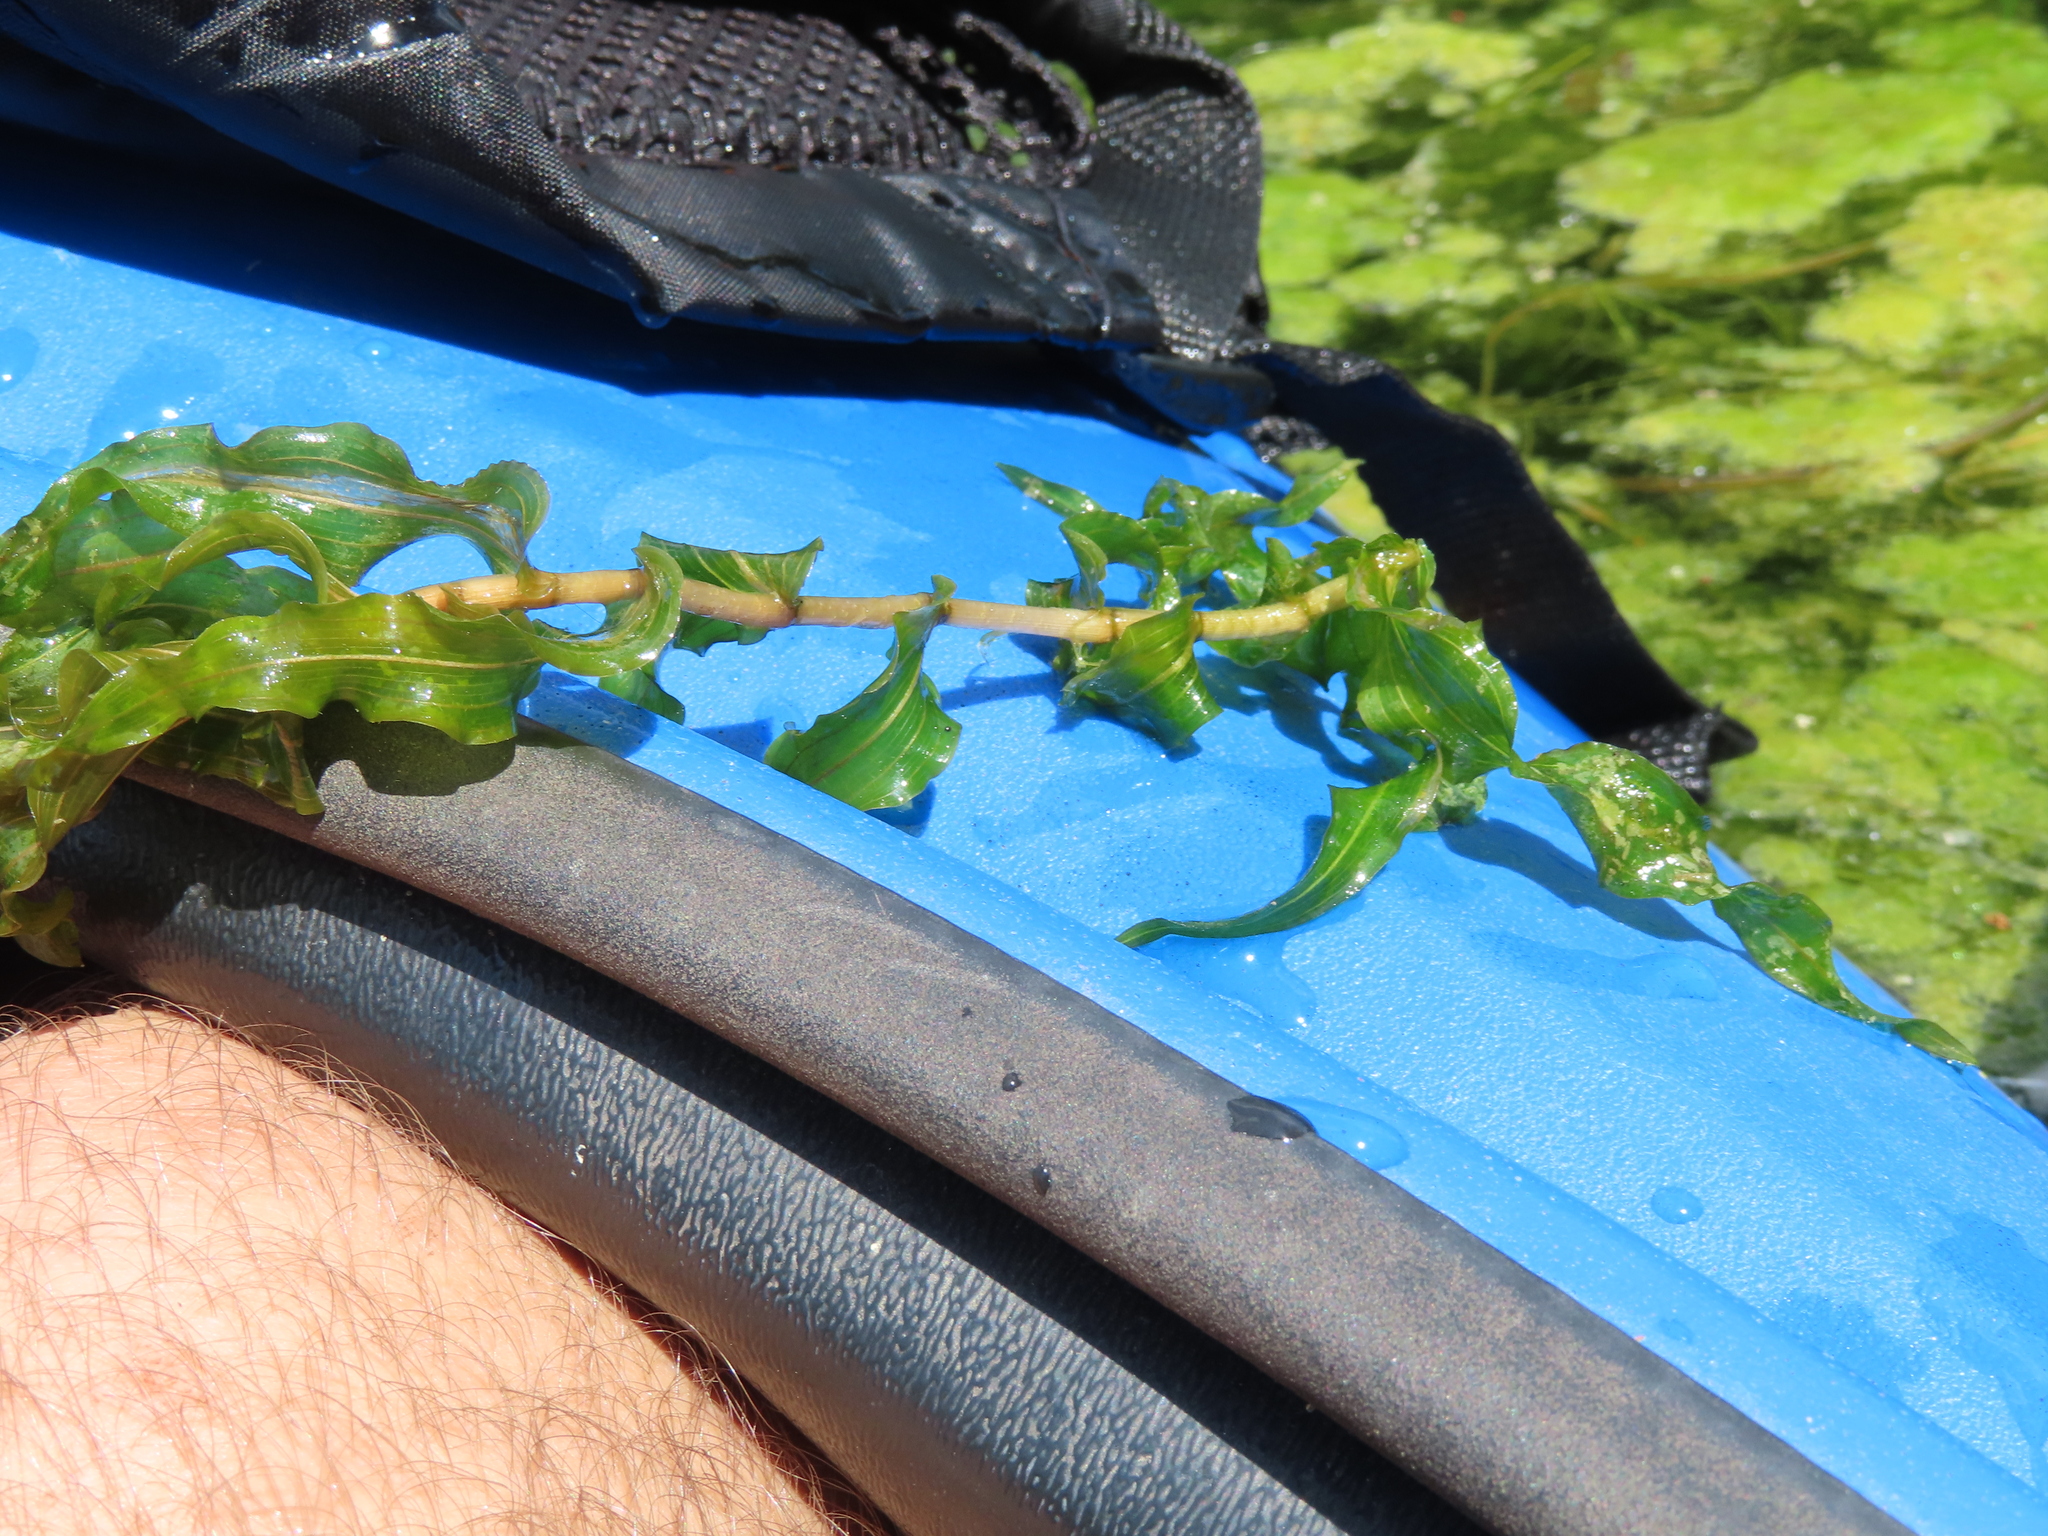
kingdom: Plantae
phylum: Tracheophyta
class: Liliopsida
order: Alismatales
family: Potamogetonaceae
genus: Potamogeton
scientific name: Potamogeton richardsonii
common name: Richardson's pondweed
